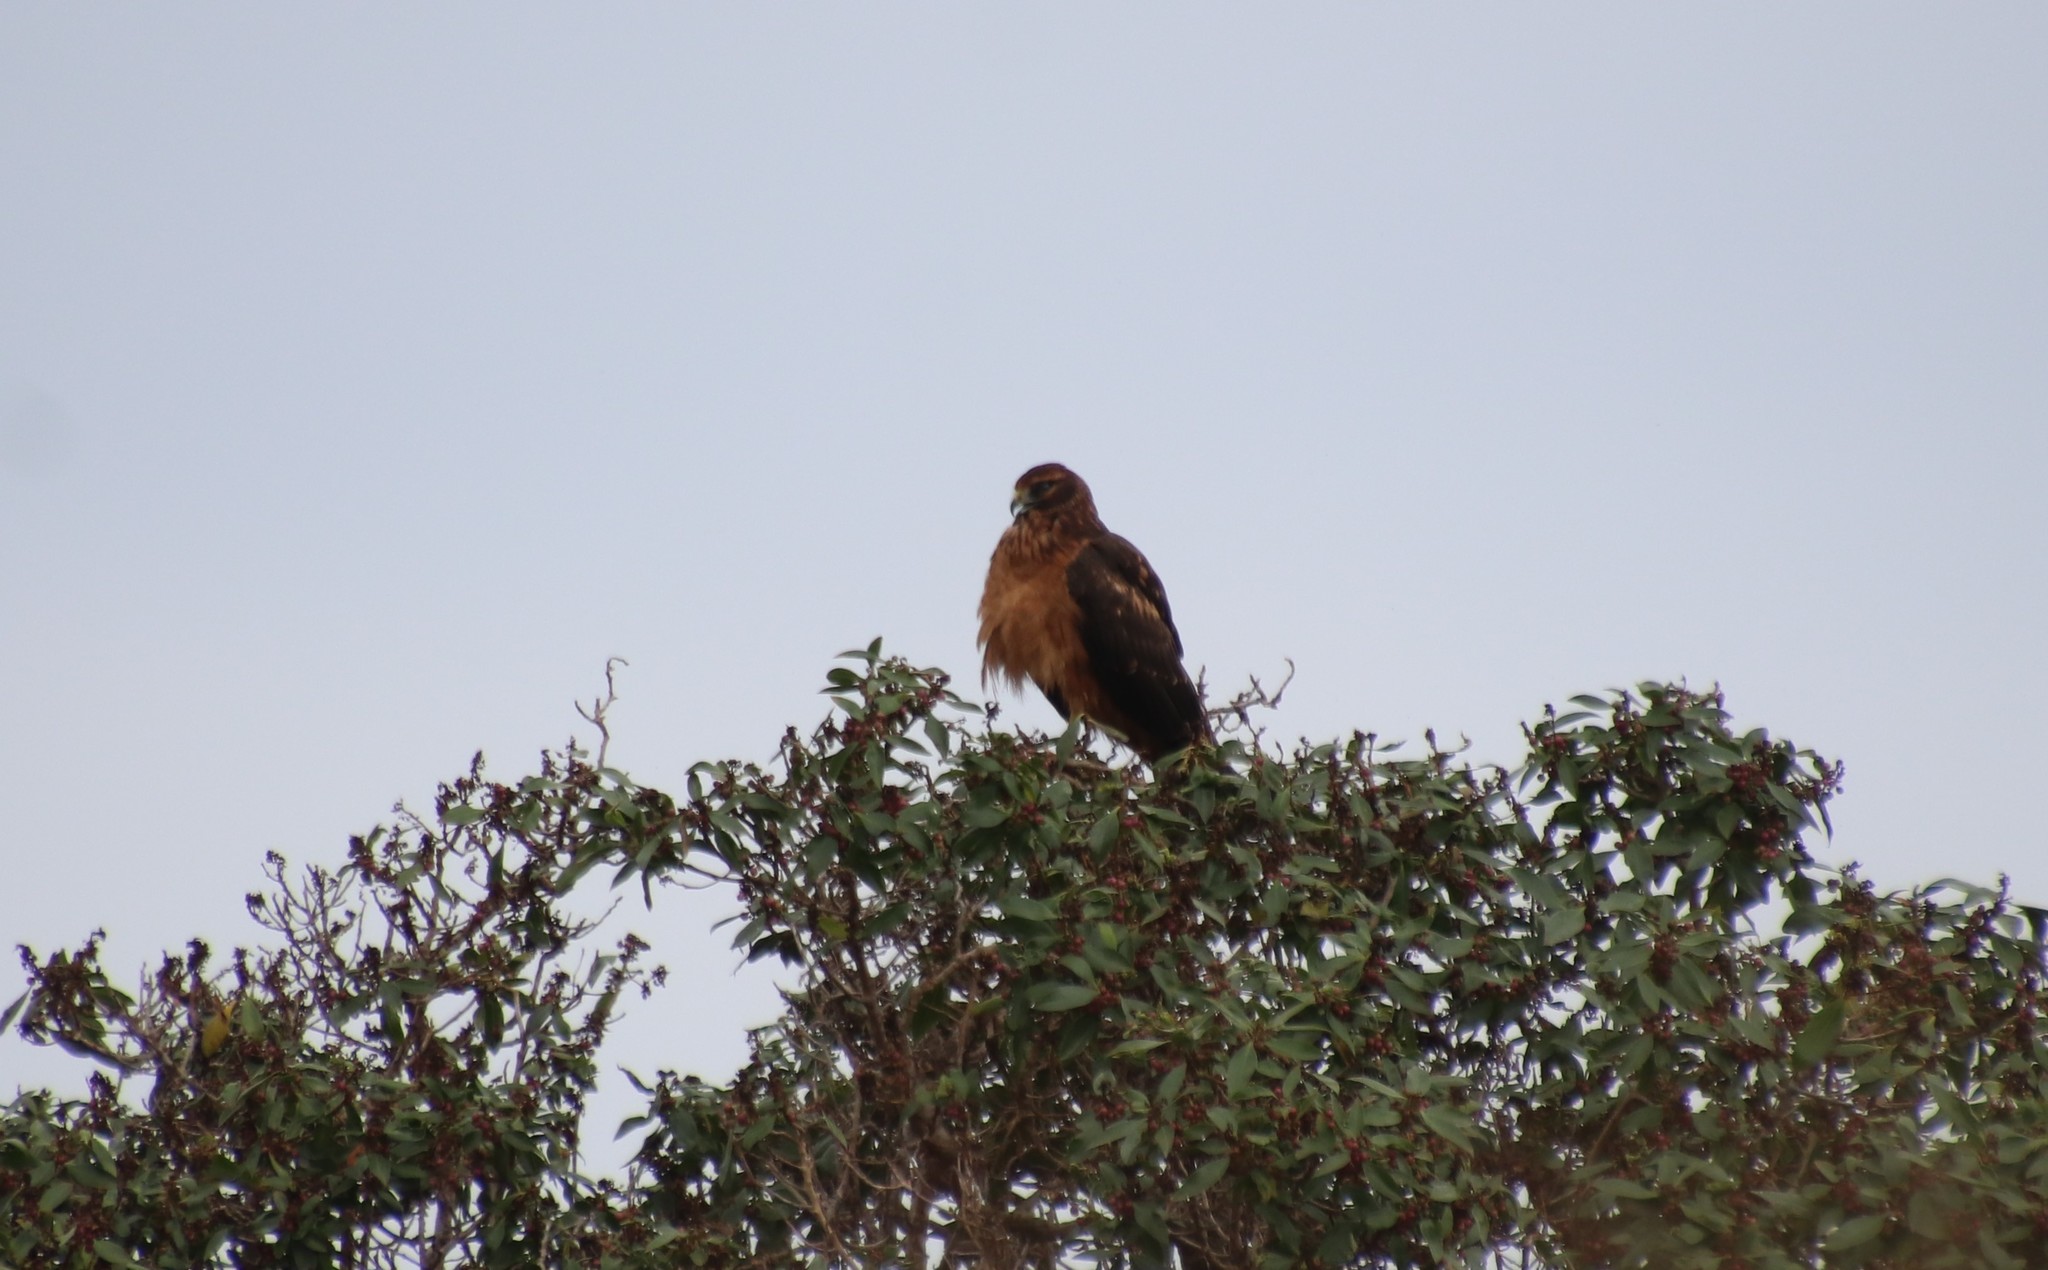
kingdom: Animalia
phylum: Chordata
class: Aves
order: Accipitriformes
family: Accipitridae
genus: Circus
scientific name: Circus cyaneus
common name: Hen harrier
